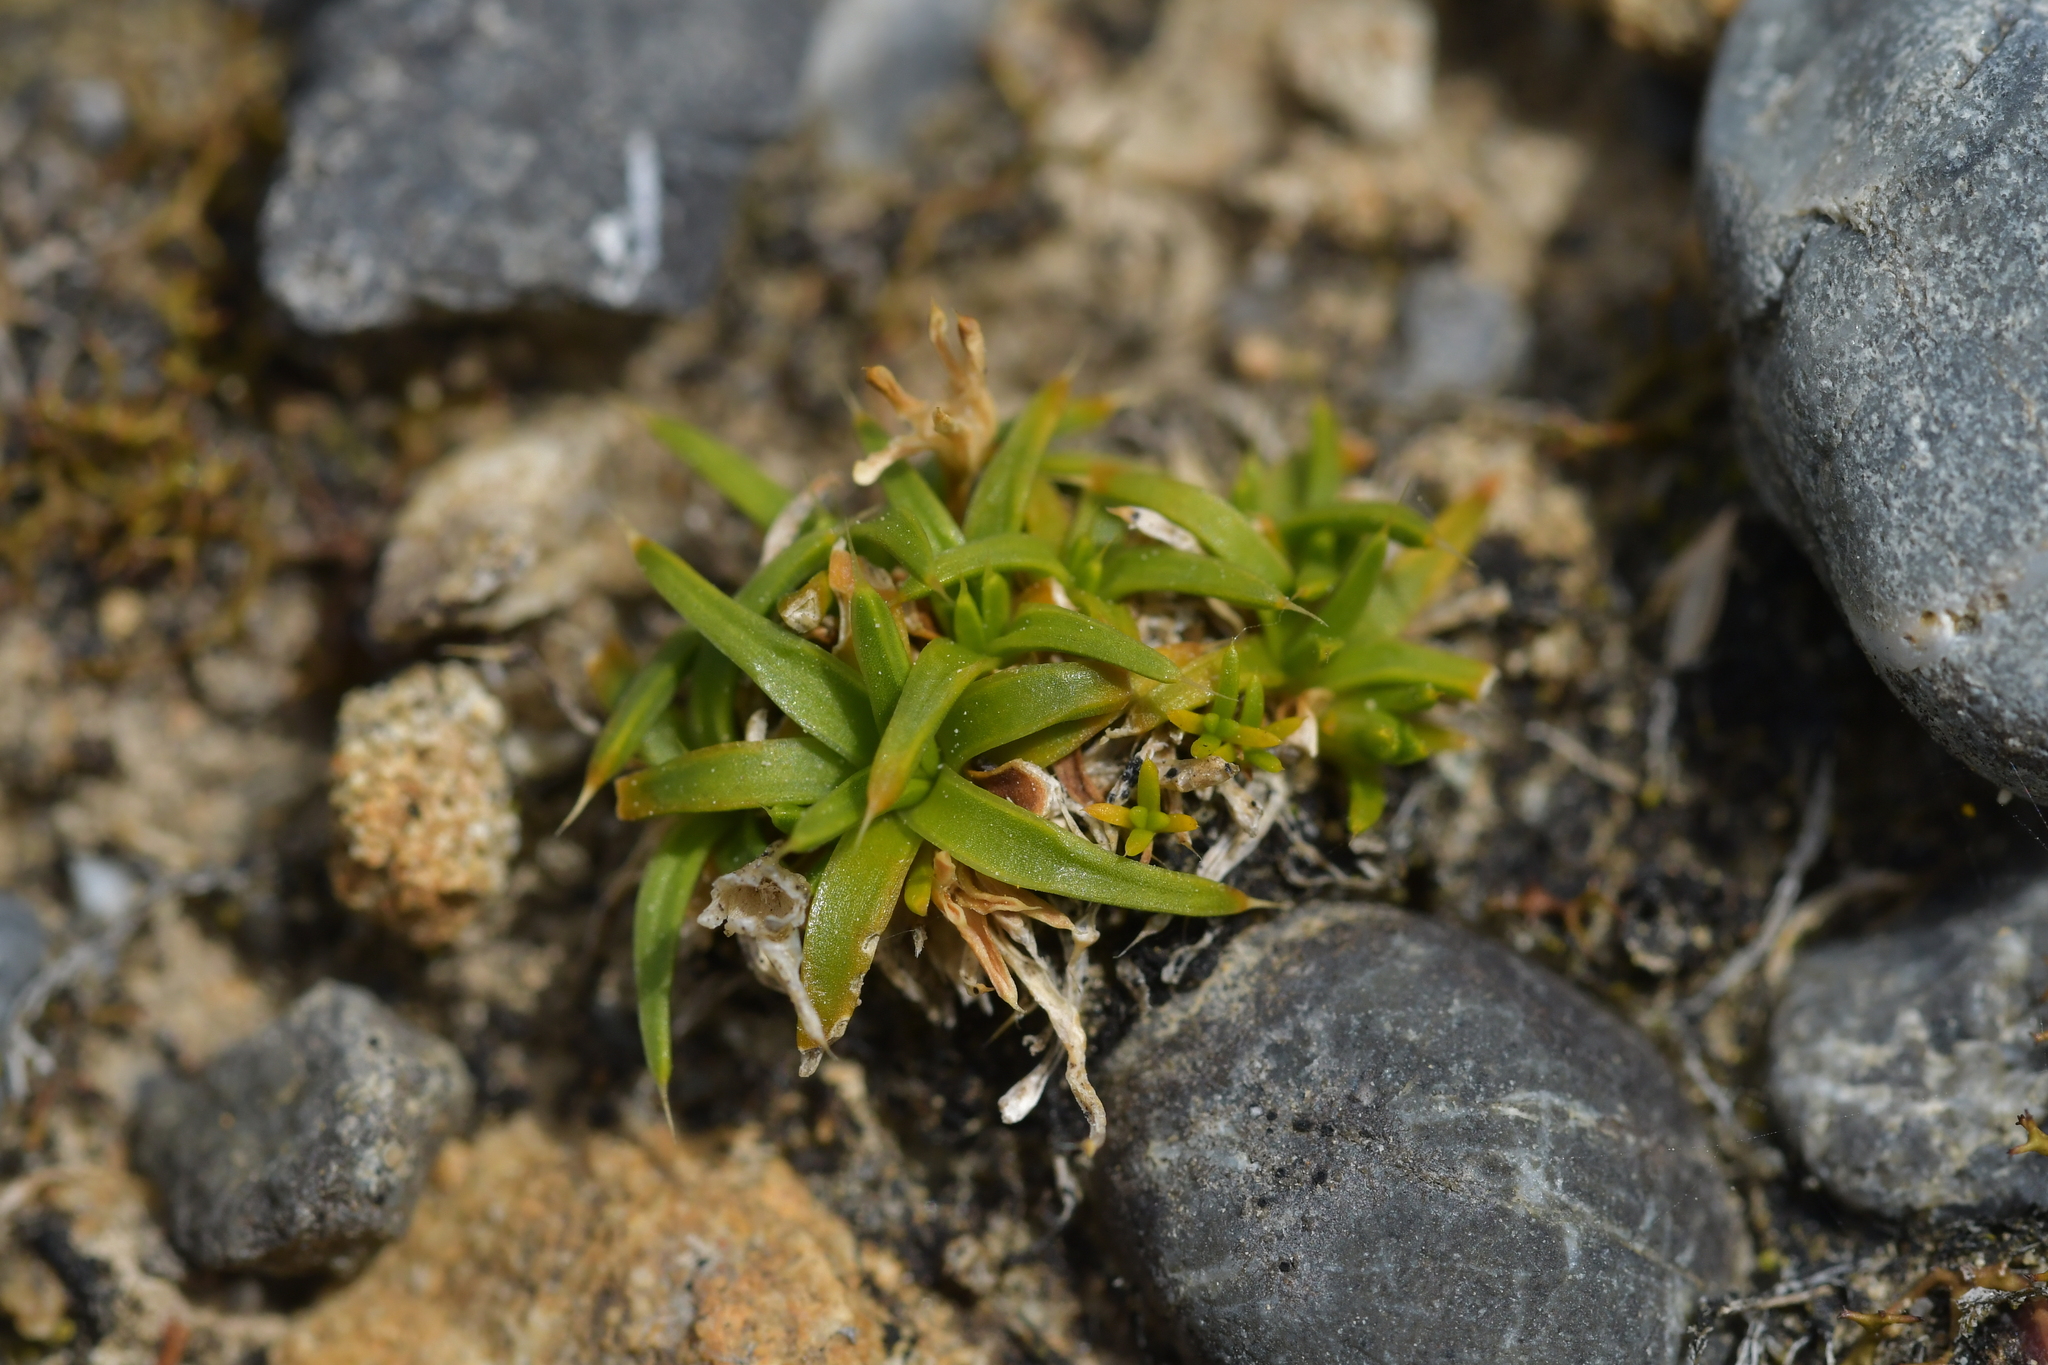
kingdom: Plantae
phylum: Tracheophyta
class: Magnoliopsida
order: Caryophyllales
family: Caryophyllaceae
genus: Colobanthus
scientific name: Colobanthus muelleri
